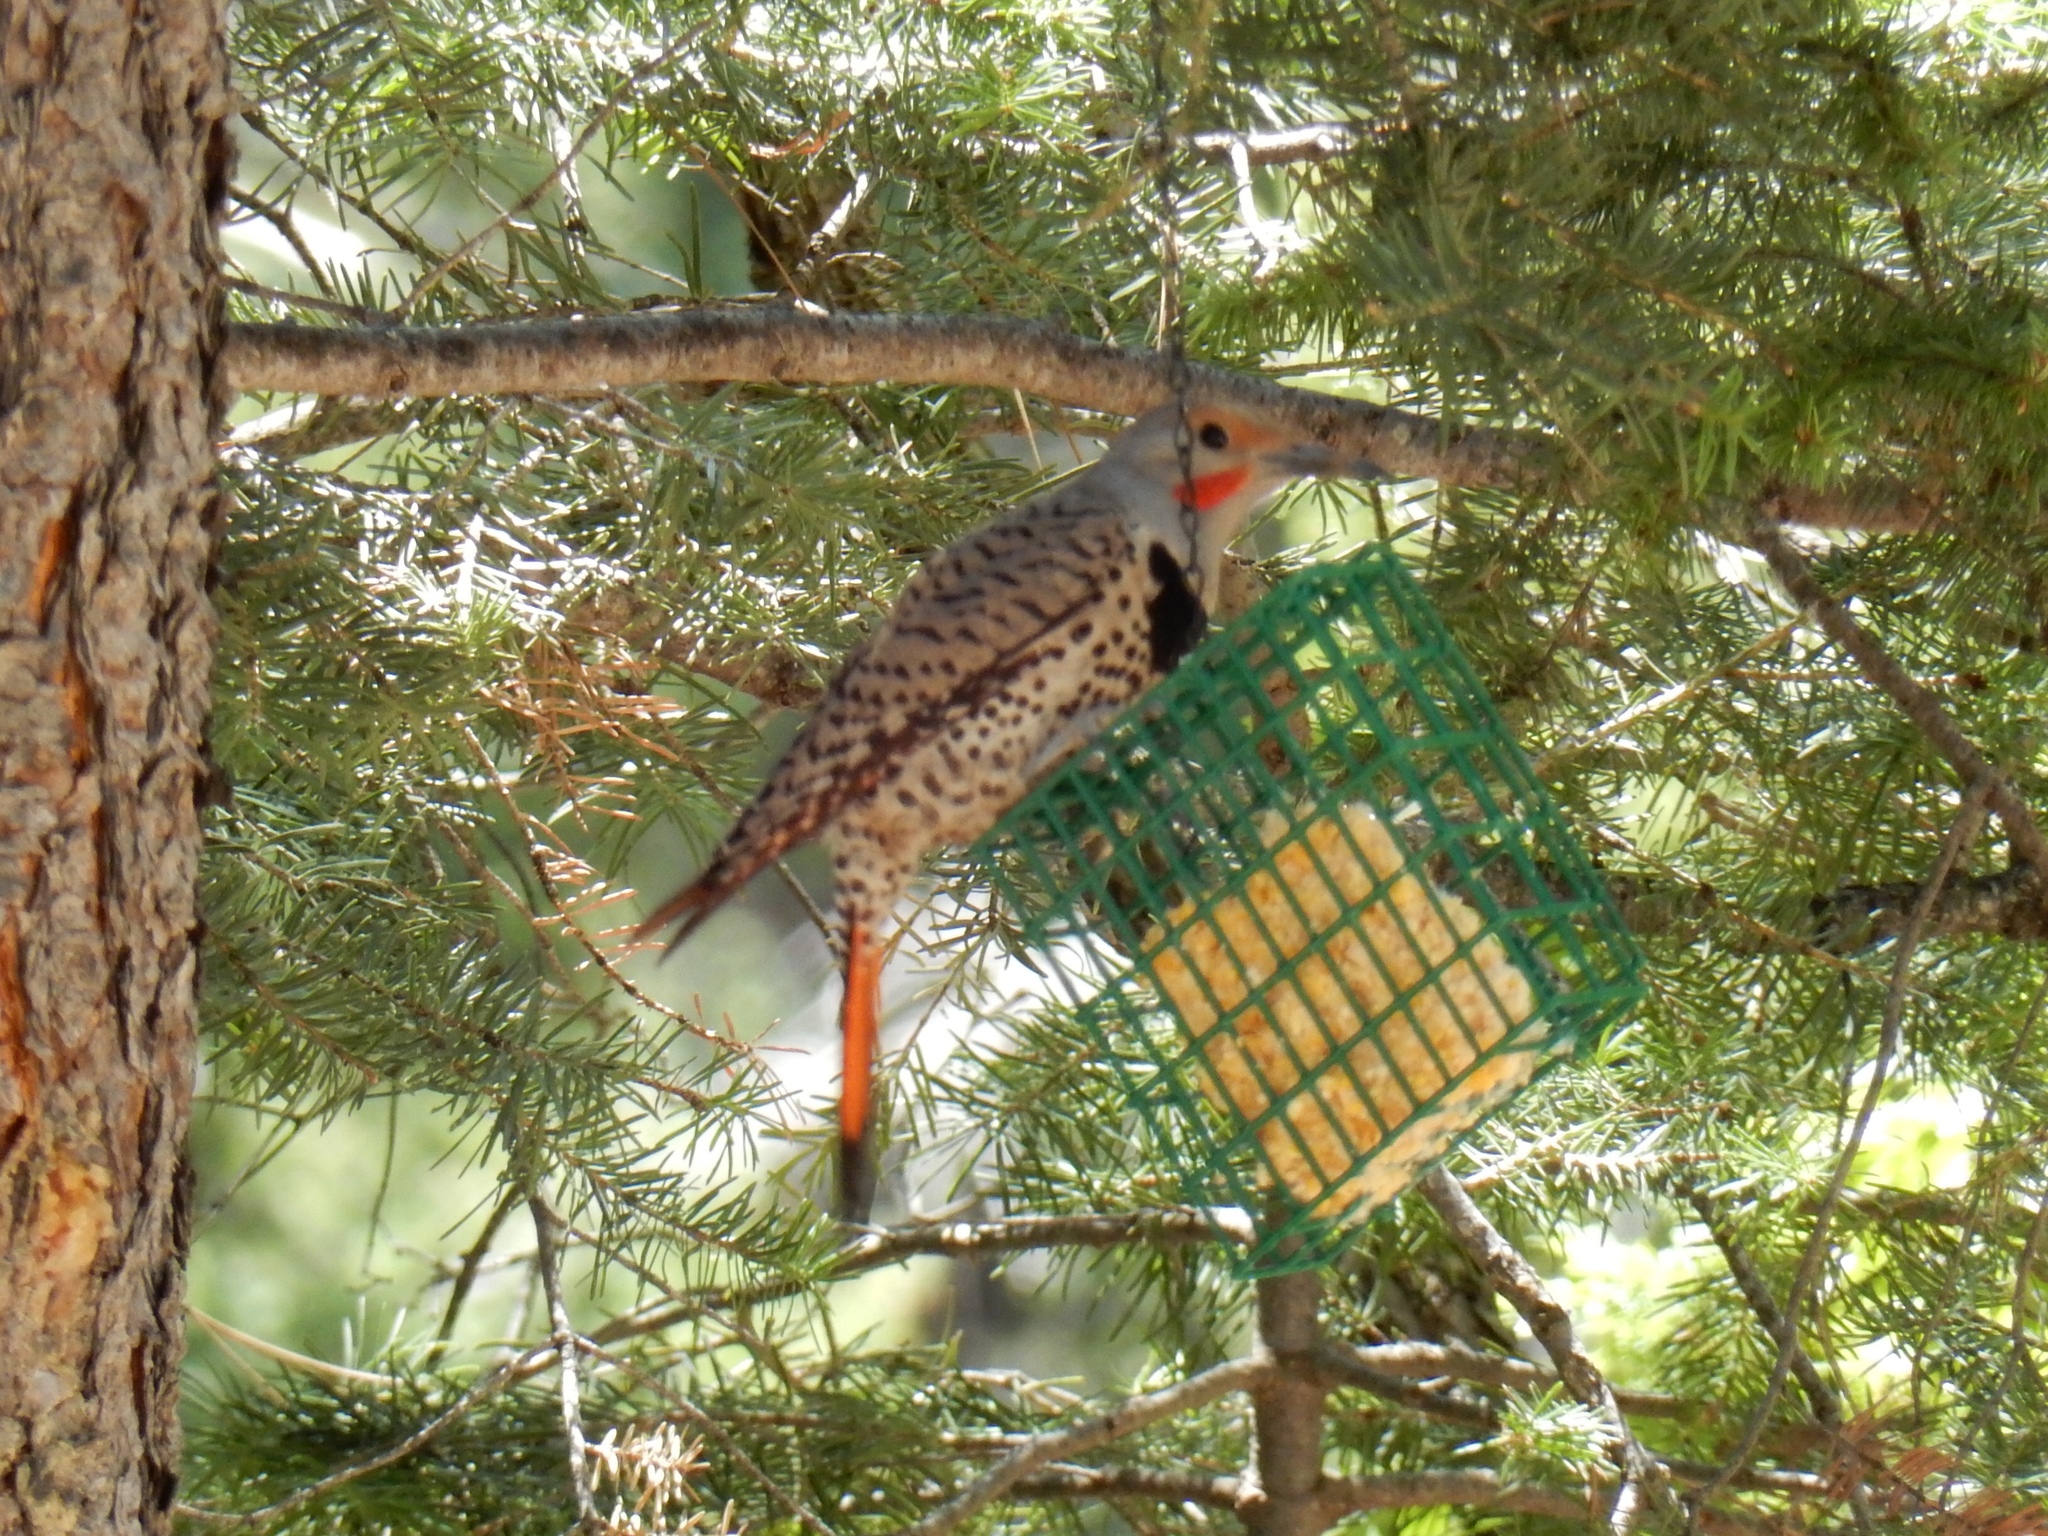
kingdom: Animalia
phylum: Chordata
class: Aves
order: Piciformes
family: Picidae
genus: Colaptes
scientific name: Colaptes auratus
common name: Northern flicker
